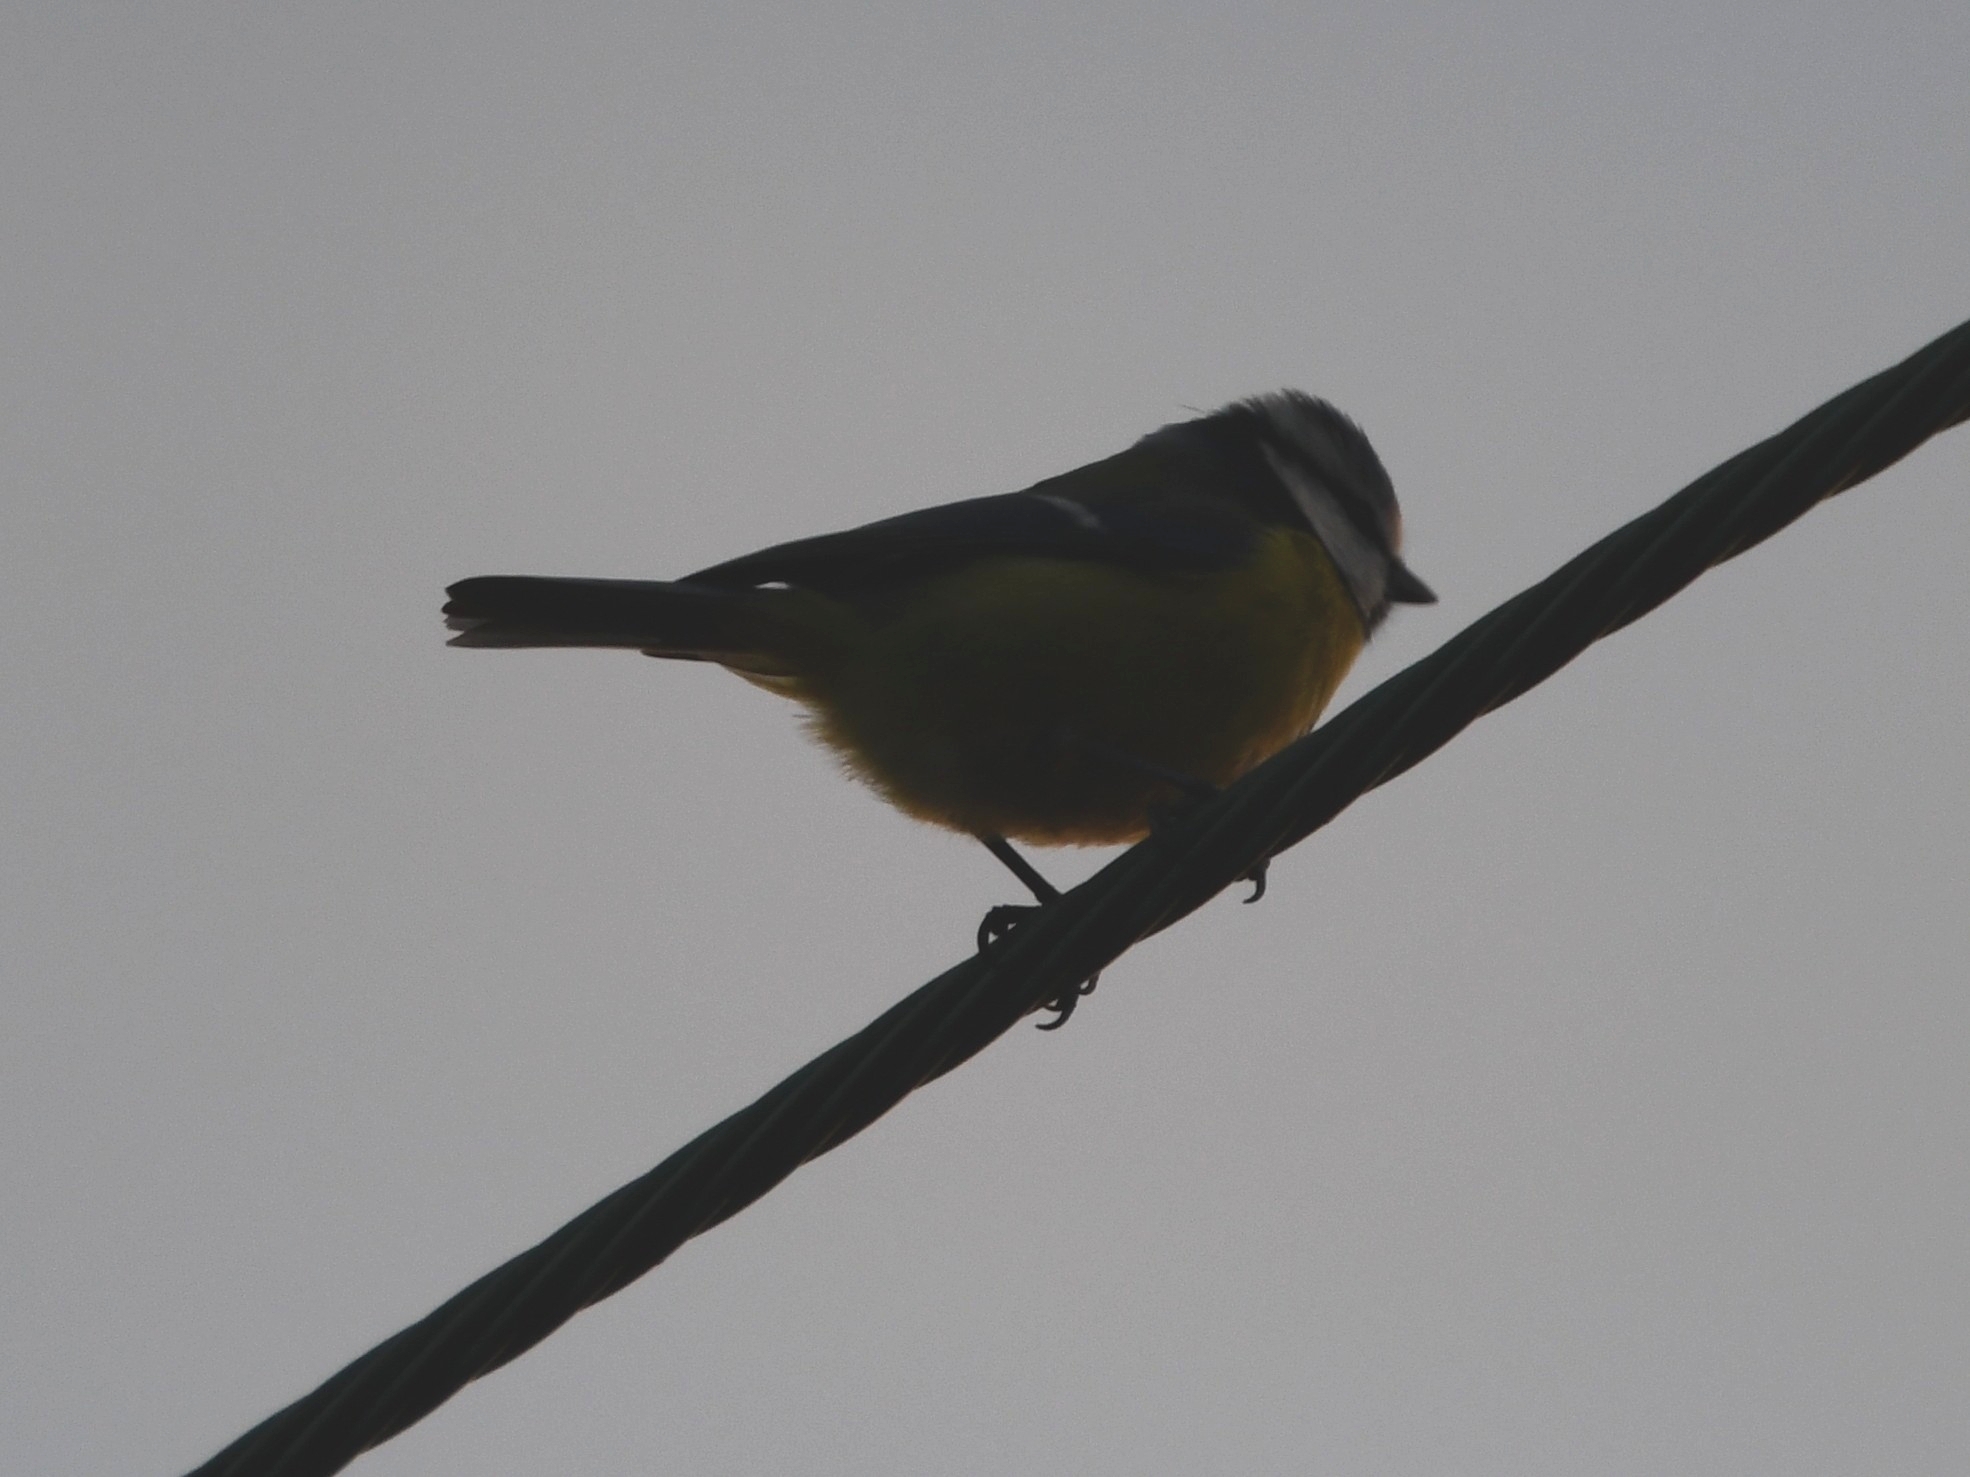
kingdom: Animalia
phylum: Chordata
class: Aves
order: Passeriformes
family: Paridae
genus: Cyanistes
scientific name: Cyanistes caeruleus
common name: Eurasian blue tit
